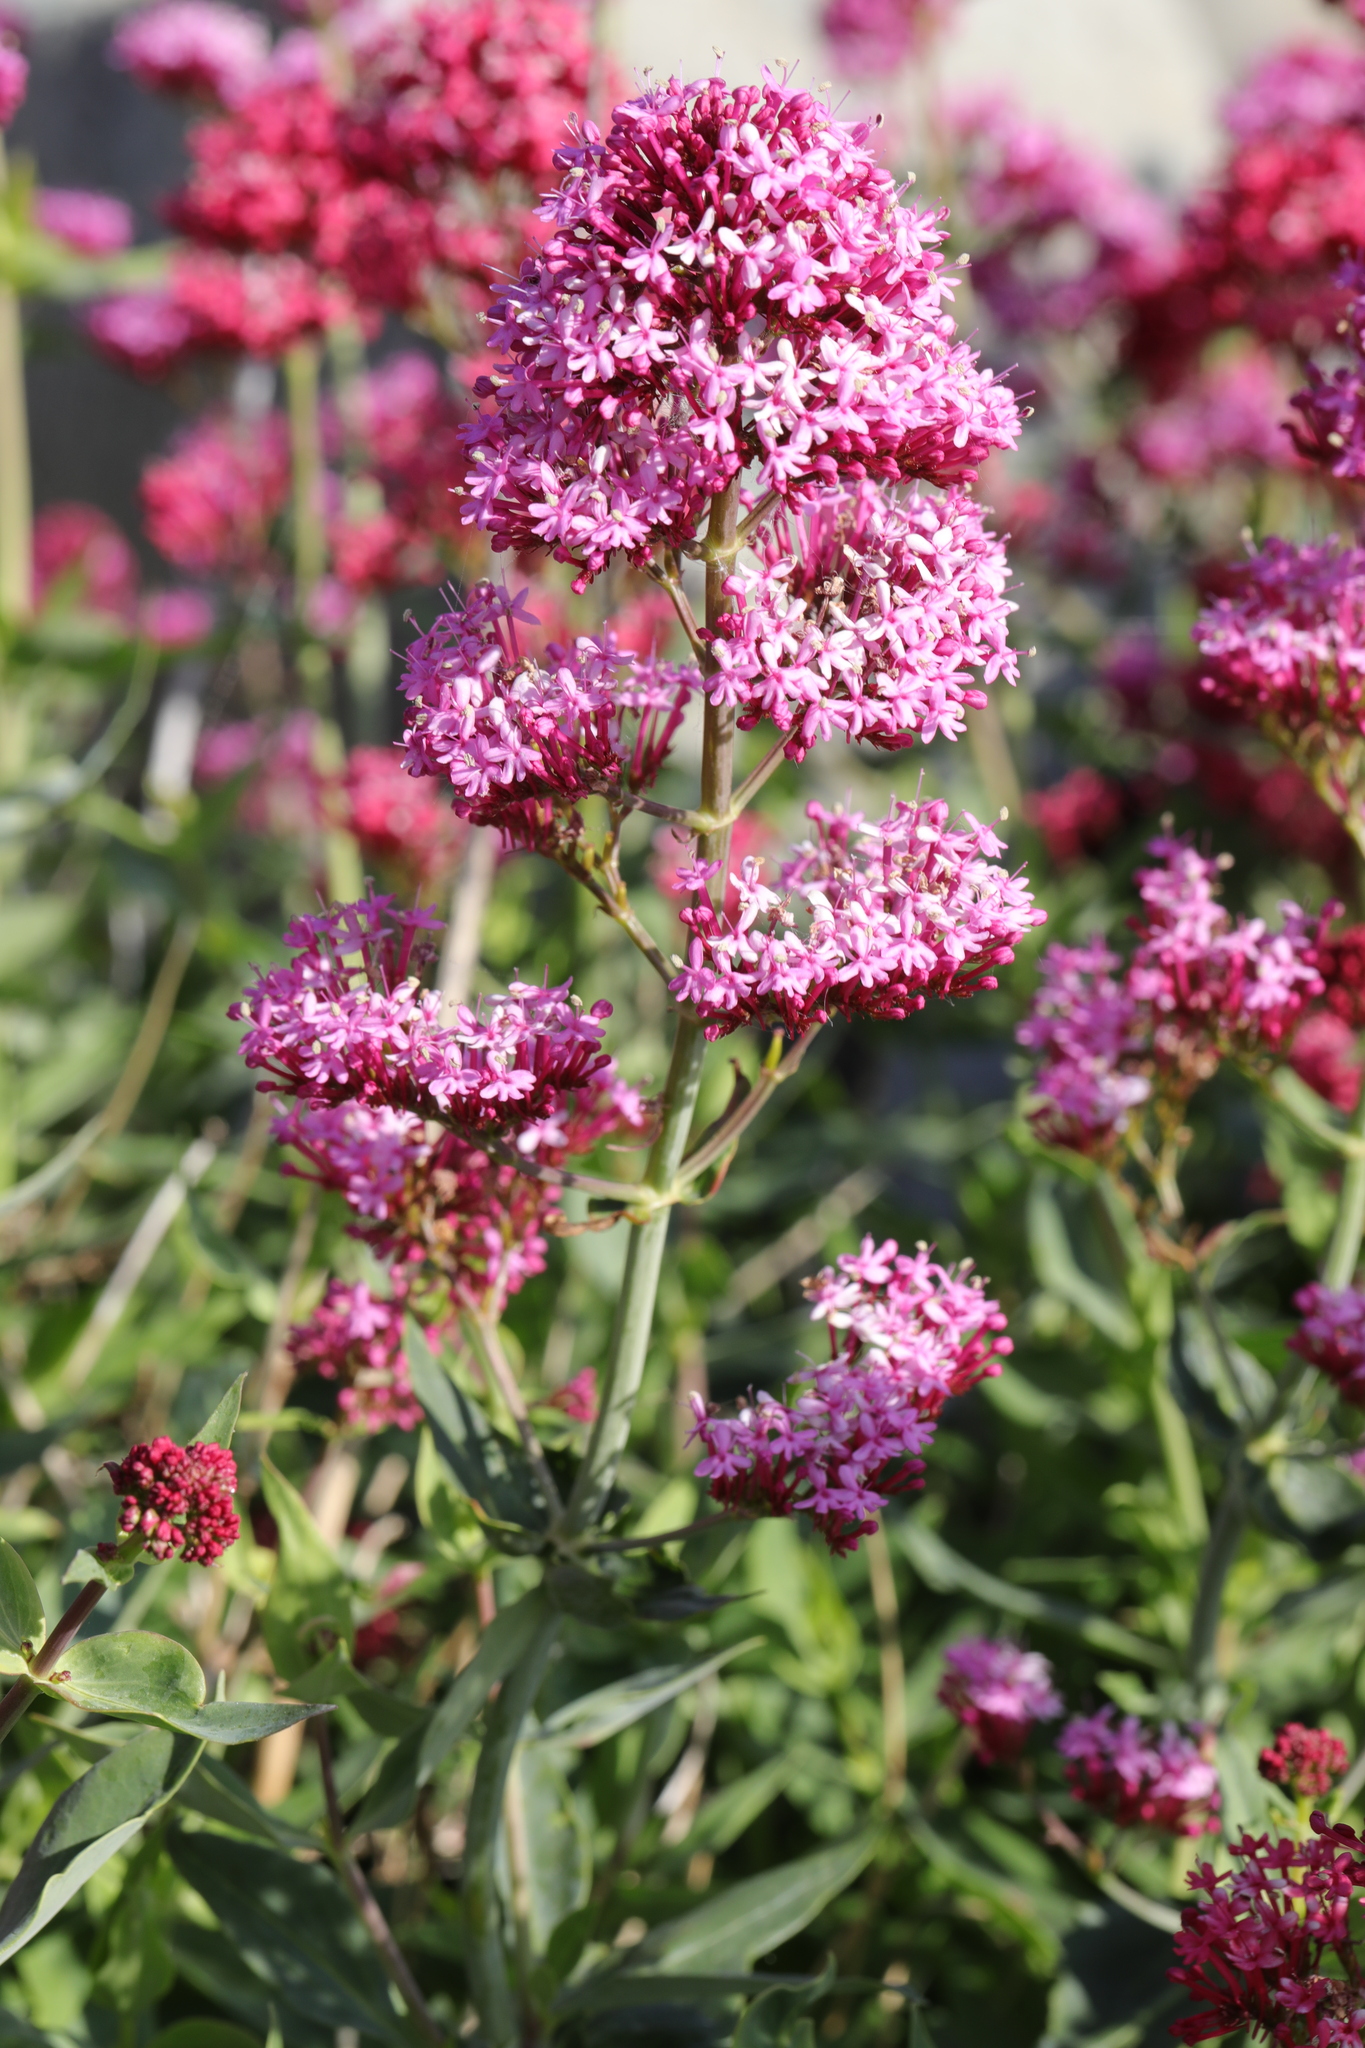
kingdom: Plantae
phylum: Tracheophyta
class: Magnoliopsida
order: Dipsacales
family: Caprifoliaceae
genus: Centranthus
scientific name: Centranthus ruber
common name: Red valerian
